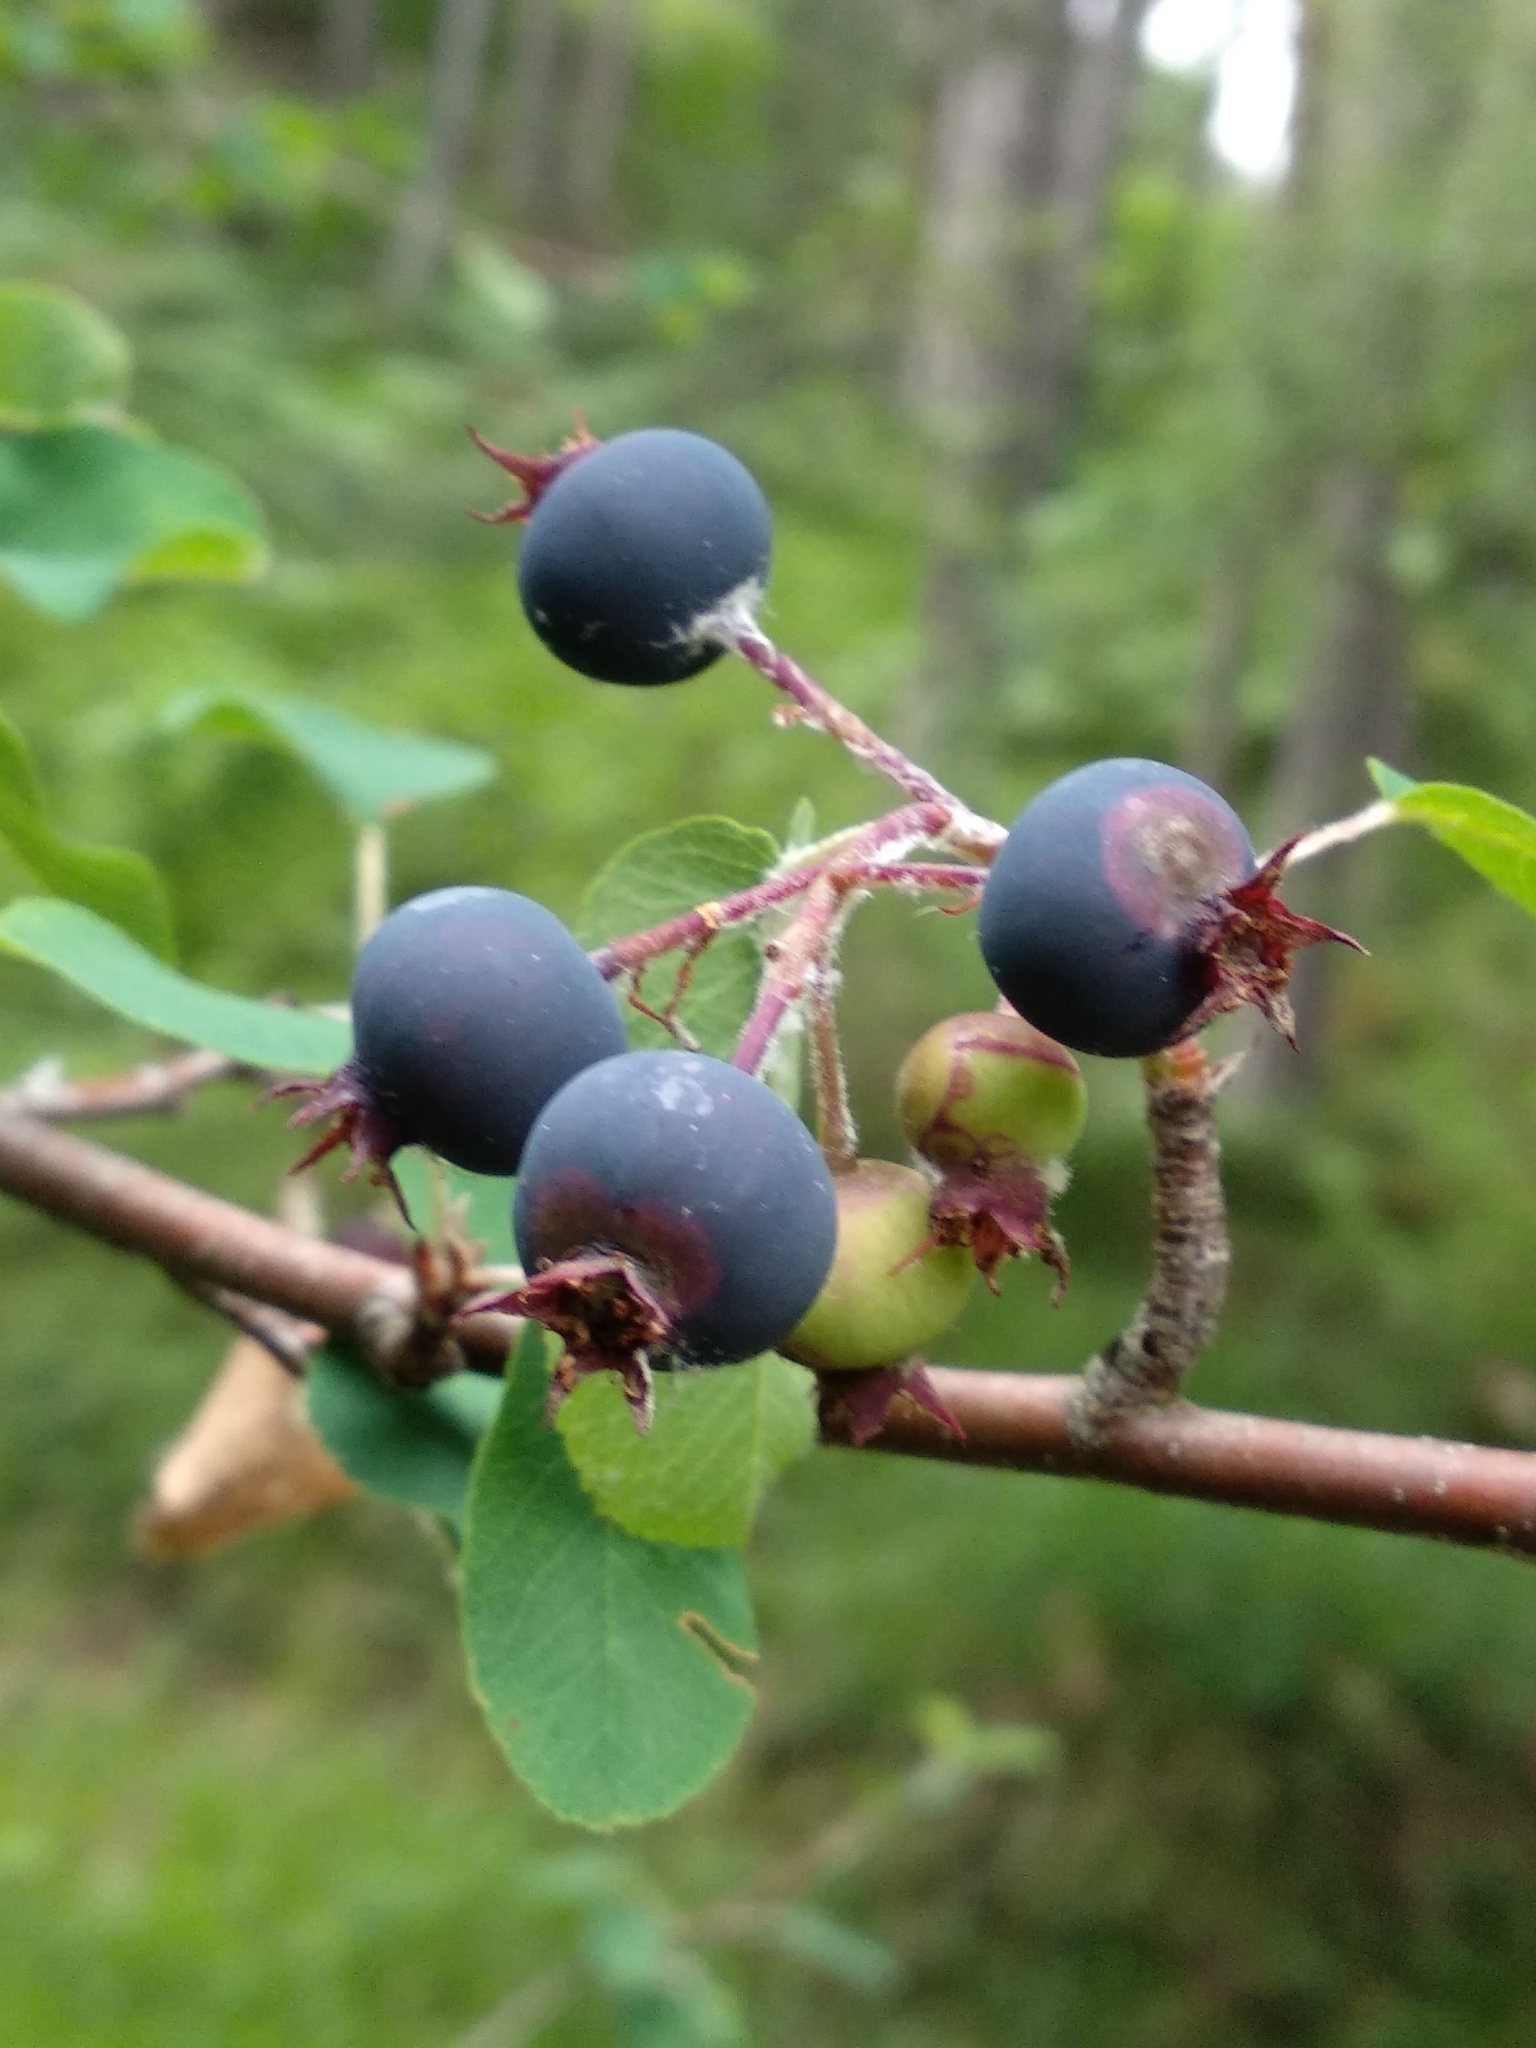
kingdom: Plantae
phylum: Tracheophyta
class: Magnoliopsida
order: Rosales
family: Rosaceae
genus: Amelanchier
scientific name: Amelanchier ovalis
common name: Serviceberry
